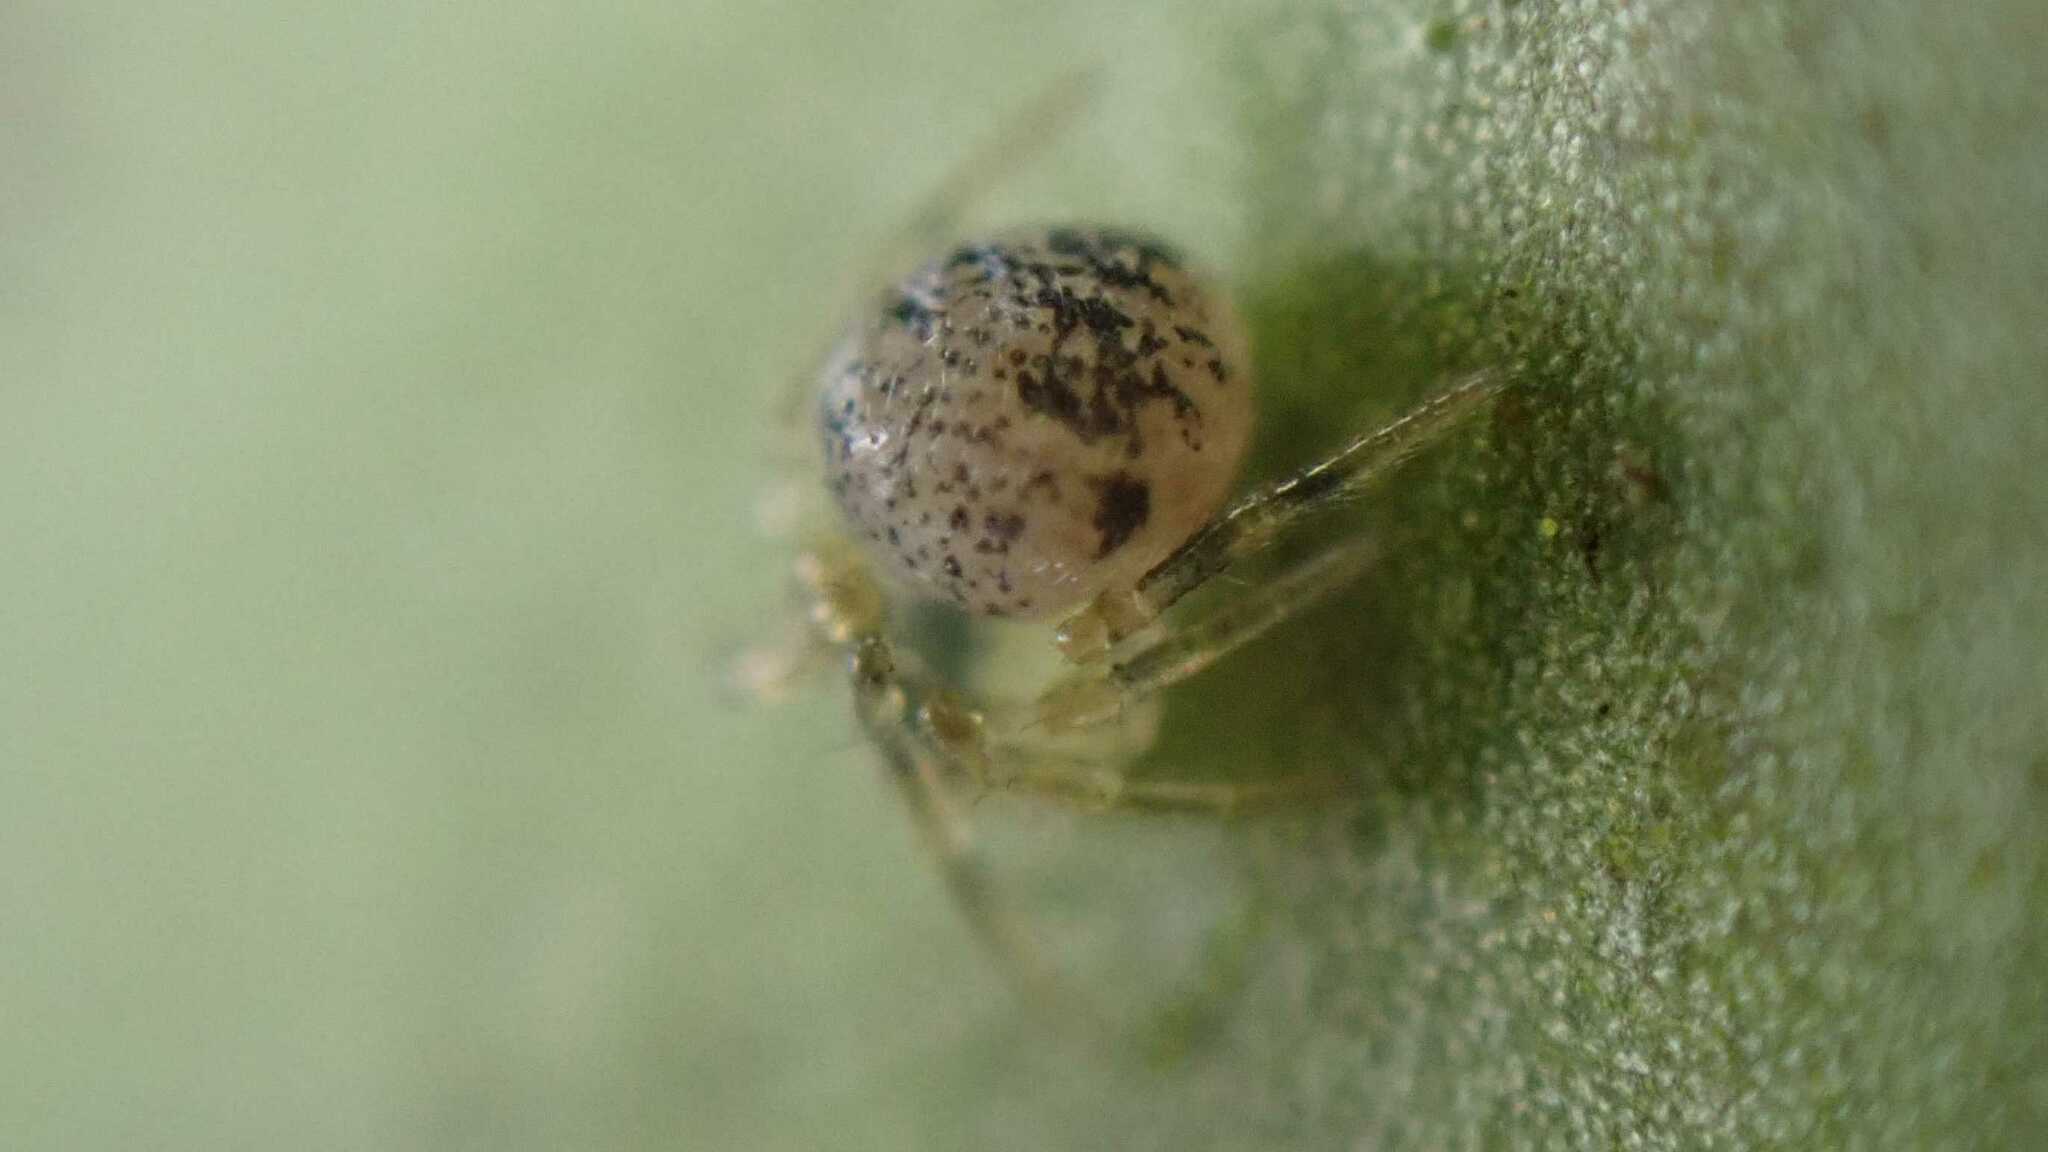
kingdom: Animalia
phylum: Arthropoda
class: Arachnida
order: Araneae
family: Theridiidae
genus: Paidiscura
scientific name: Paidiscura pallens
